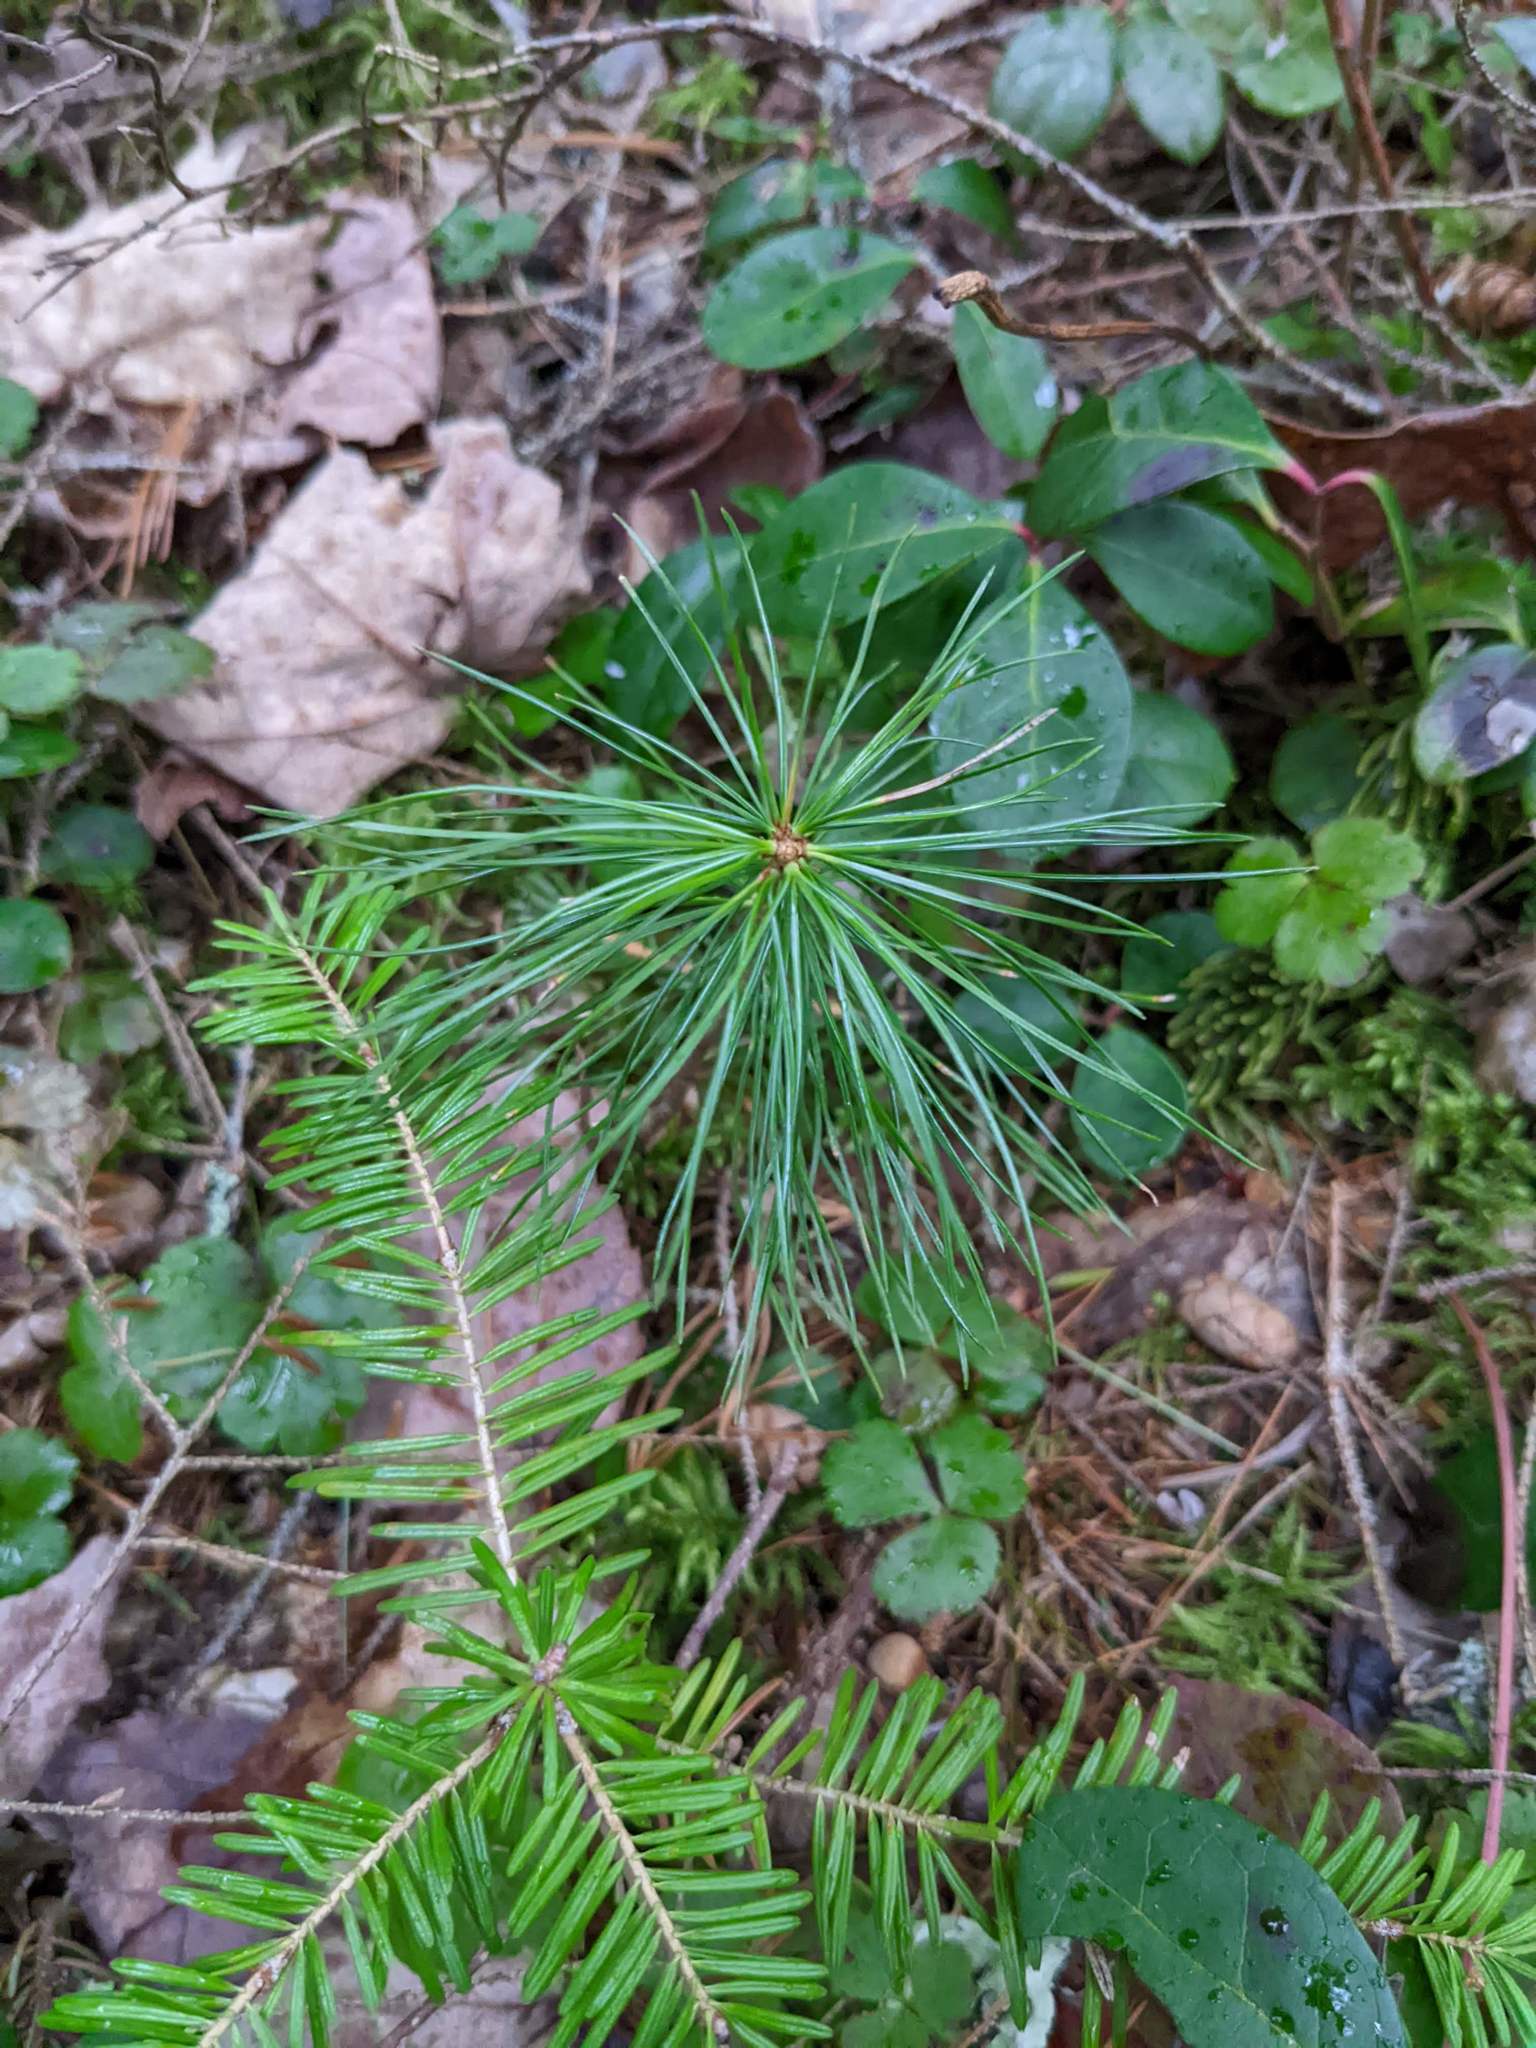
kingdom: Plantae
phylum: Tracheophyta
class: Pinopsida
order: Pinales
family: Pinaceae
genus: Pinus
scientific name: Pinus strobus
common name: Weymouth pine
